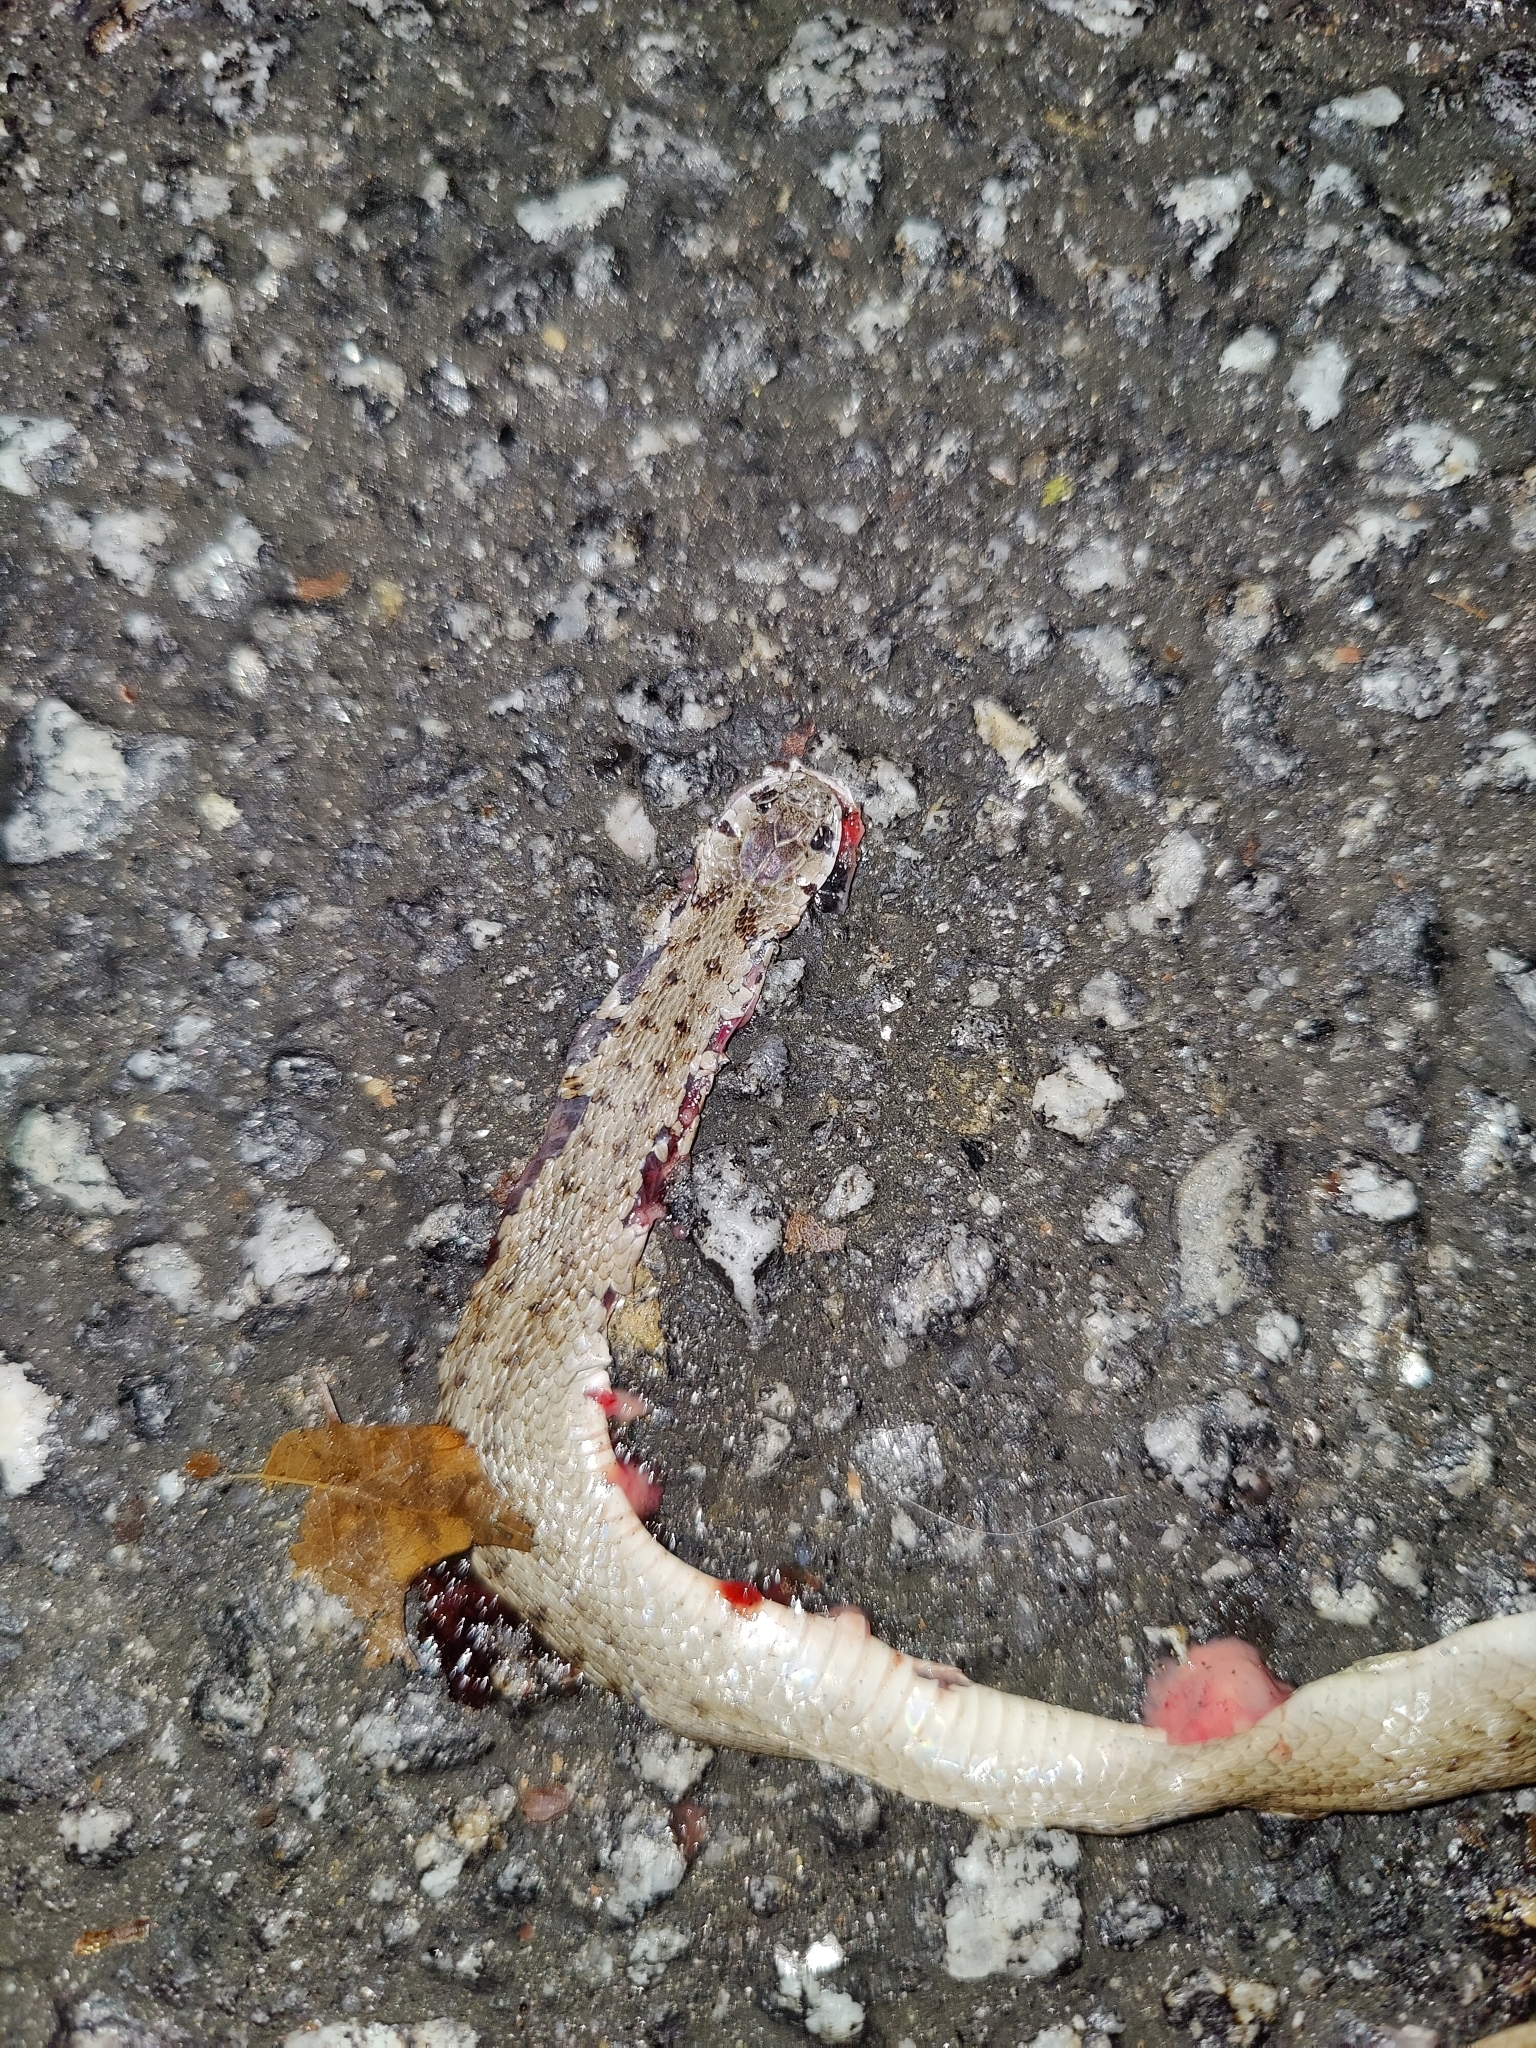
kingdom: Animalia
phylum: Chordata
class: Squamata
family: Colubridae
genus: Storeria
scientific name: Storeria dekayi
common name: (dekay’s) brown snake
